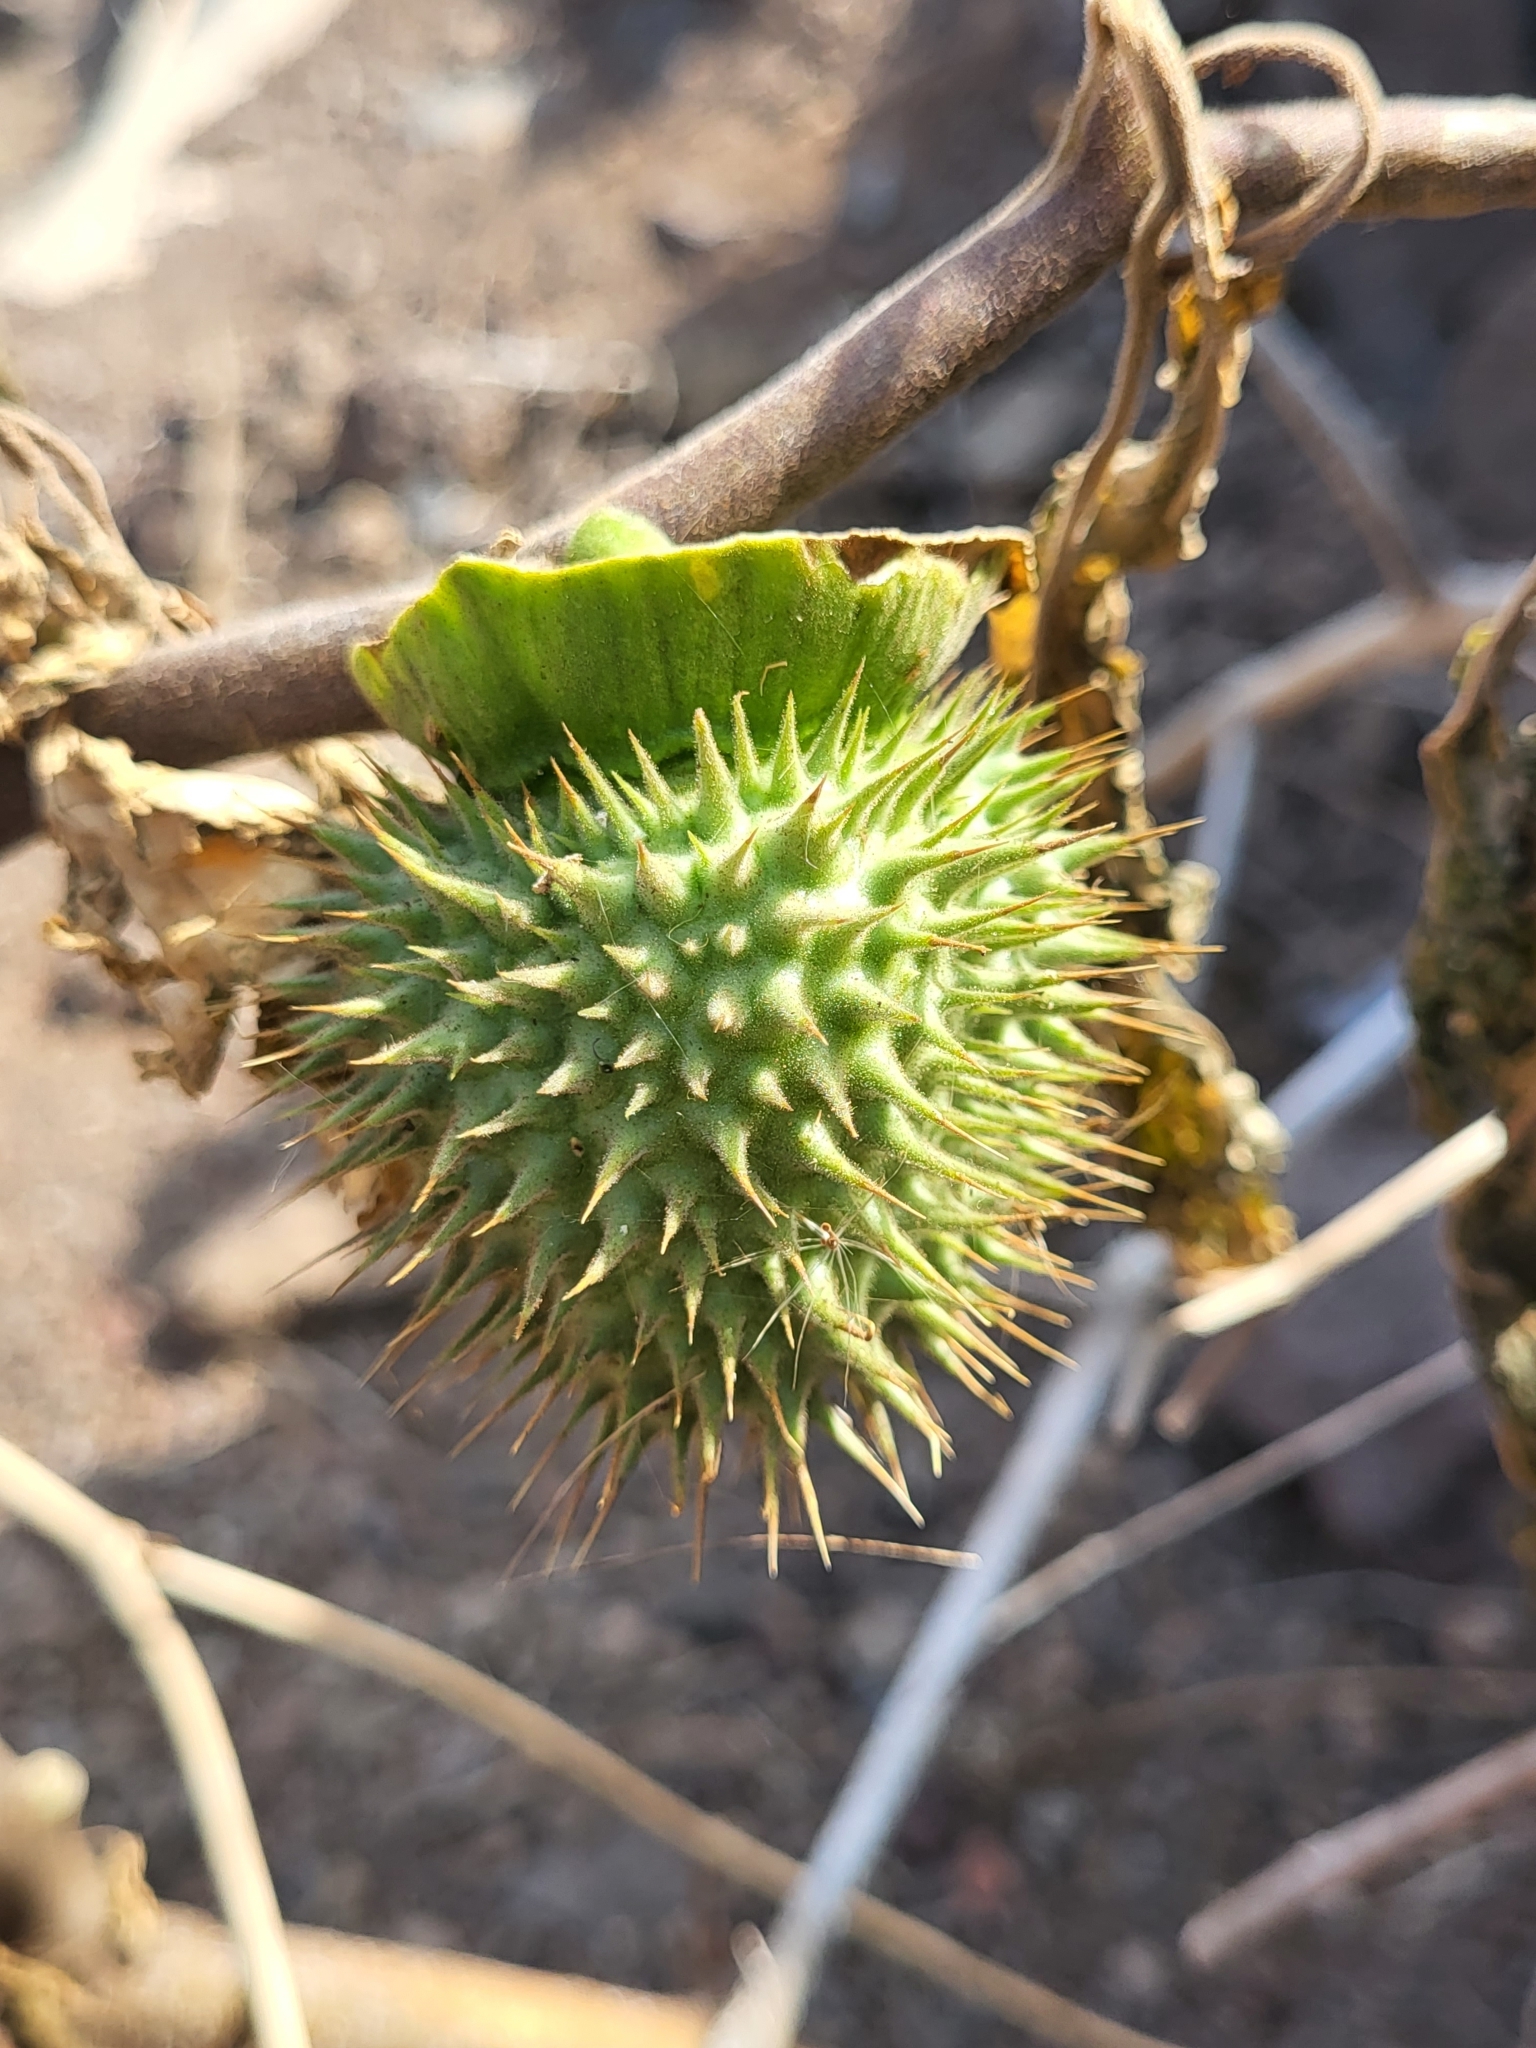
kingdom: Plantae
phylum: Tracheophyta
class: Magnoliopsida
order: Solanales
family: Solanaceae
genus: Datura
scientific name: Datura wrightii
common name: Sacred thorn-apple
